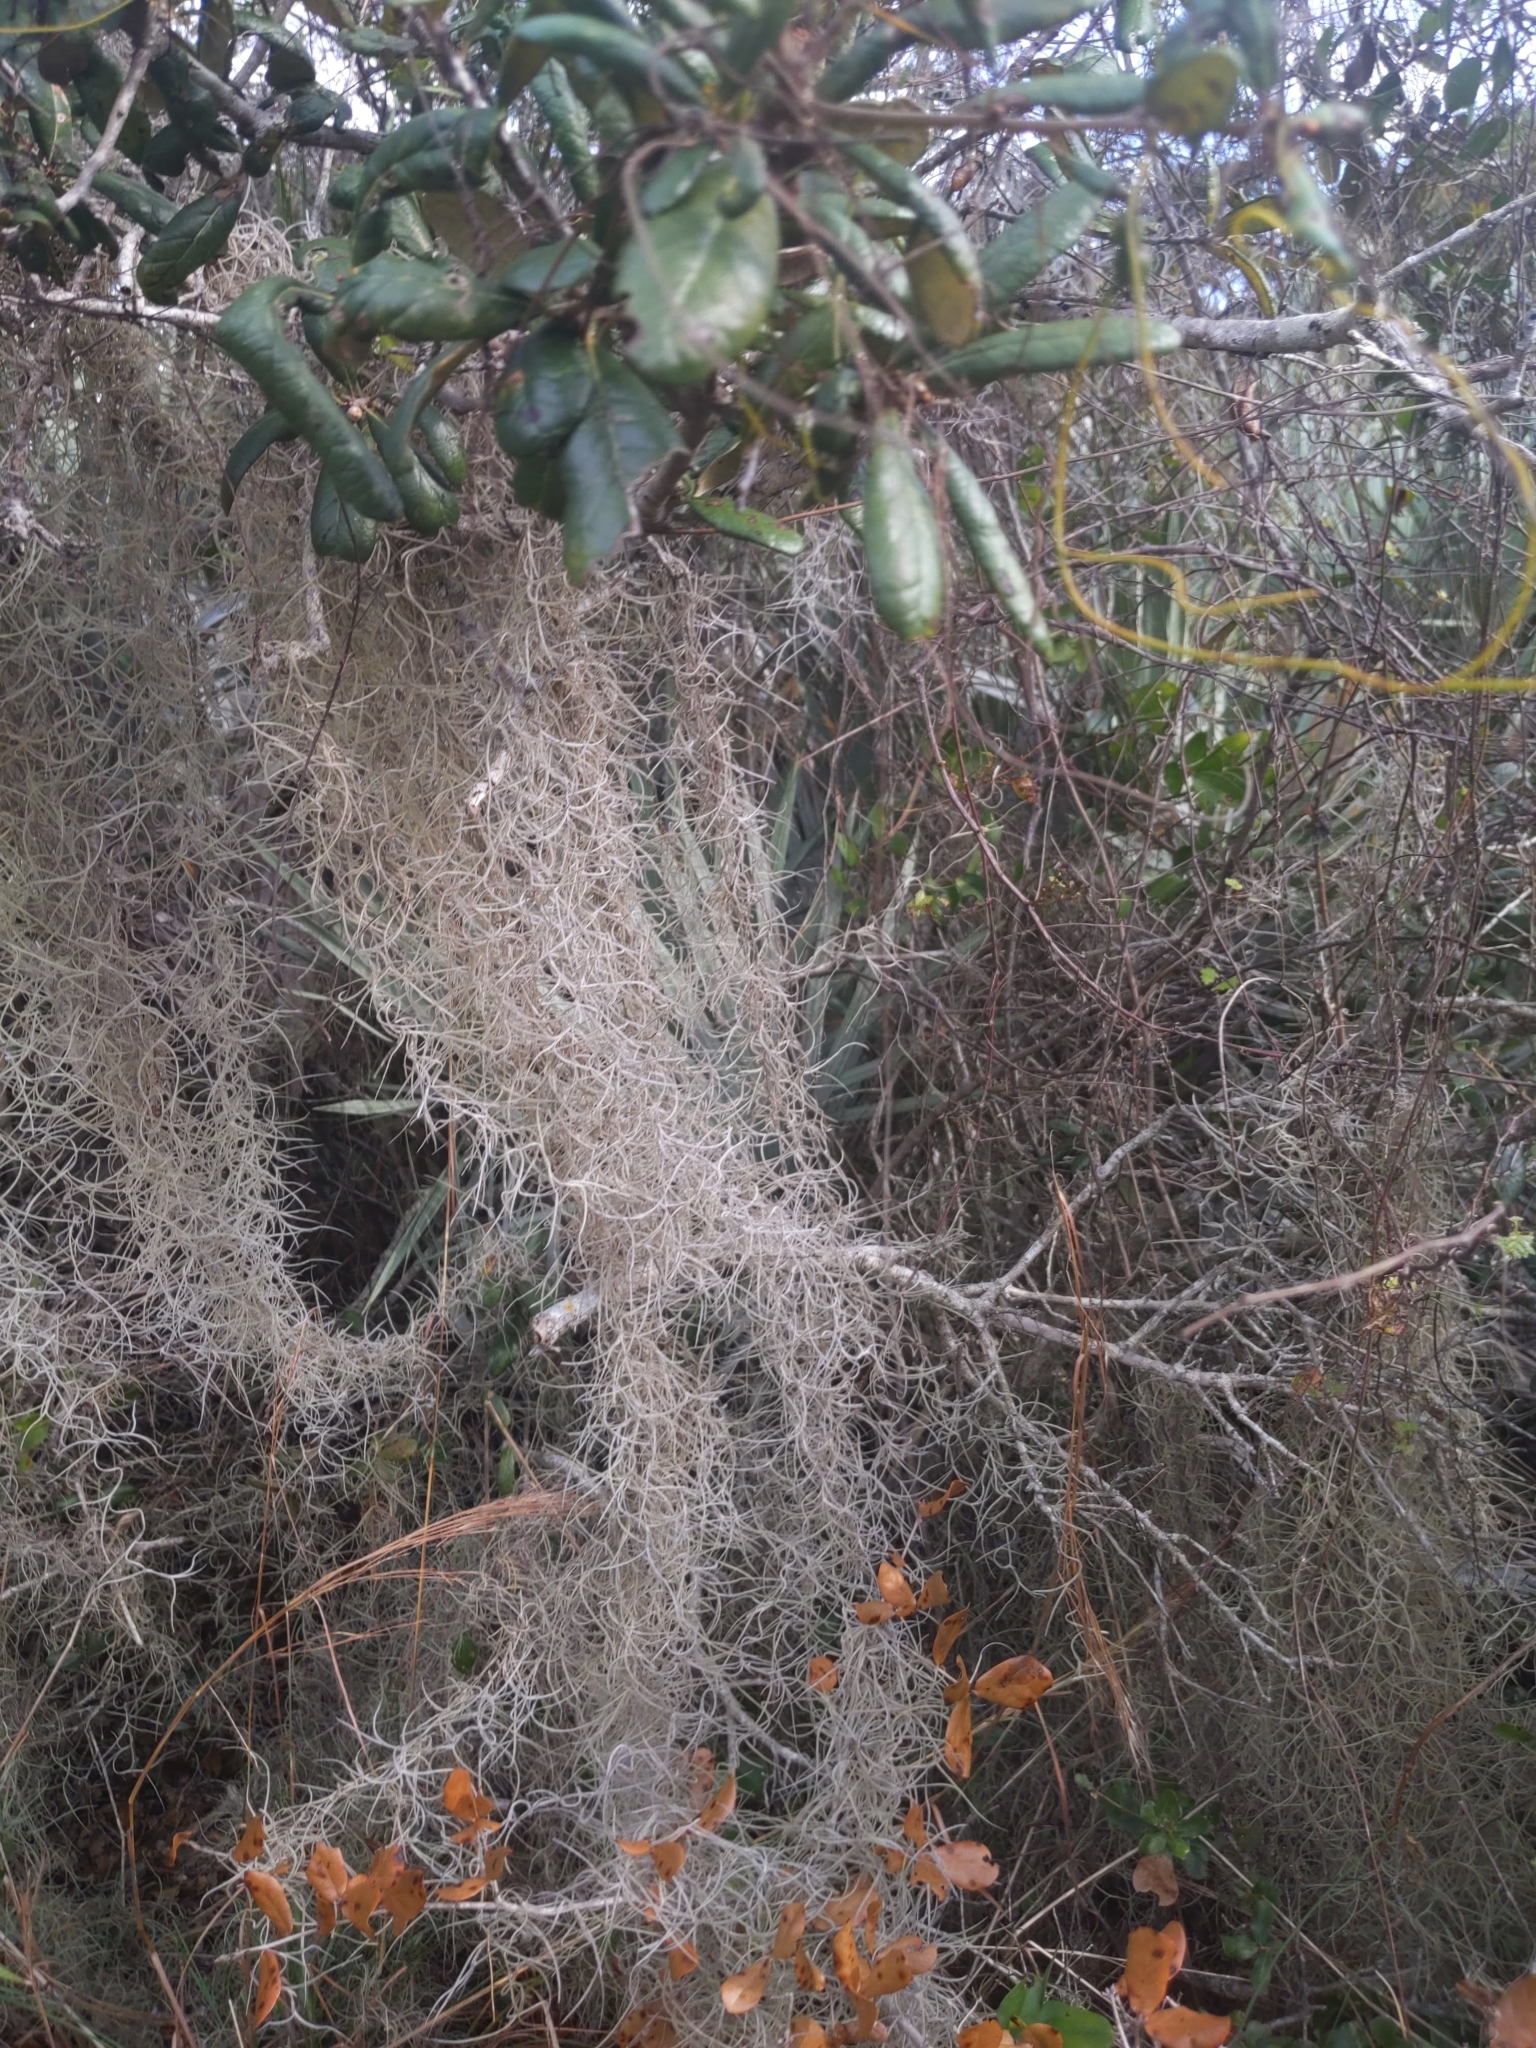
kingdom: Plantae
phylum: Tracheophyta
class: Liliopsida
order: Poales
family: Bromeliaceae
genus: Tillandsia
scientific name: Tillandsia usneoides
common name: Spanish moss
